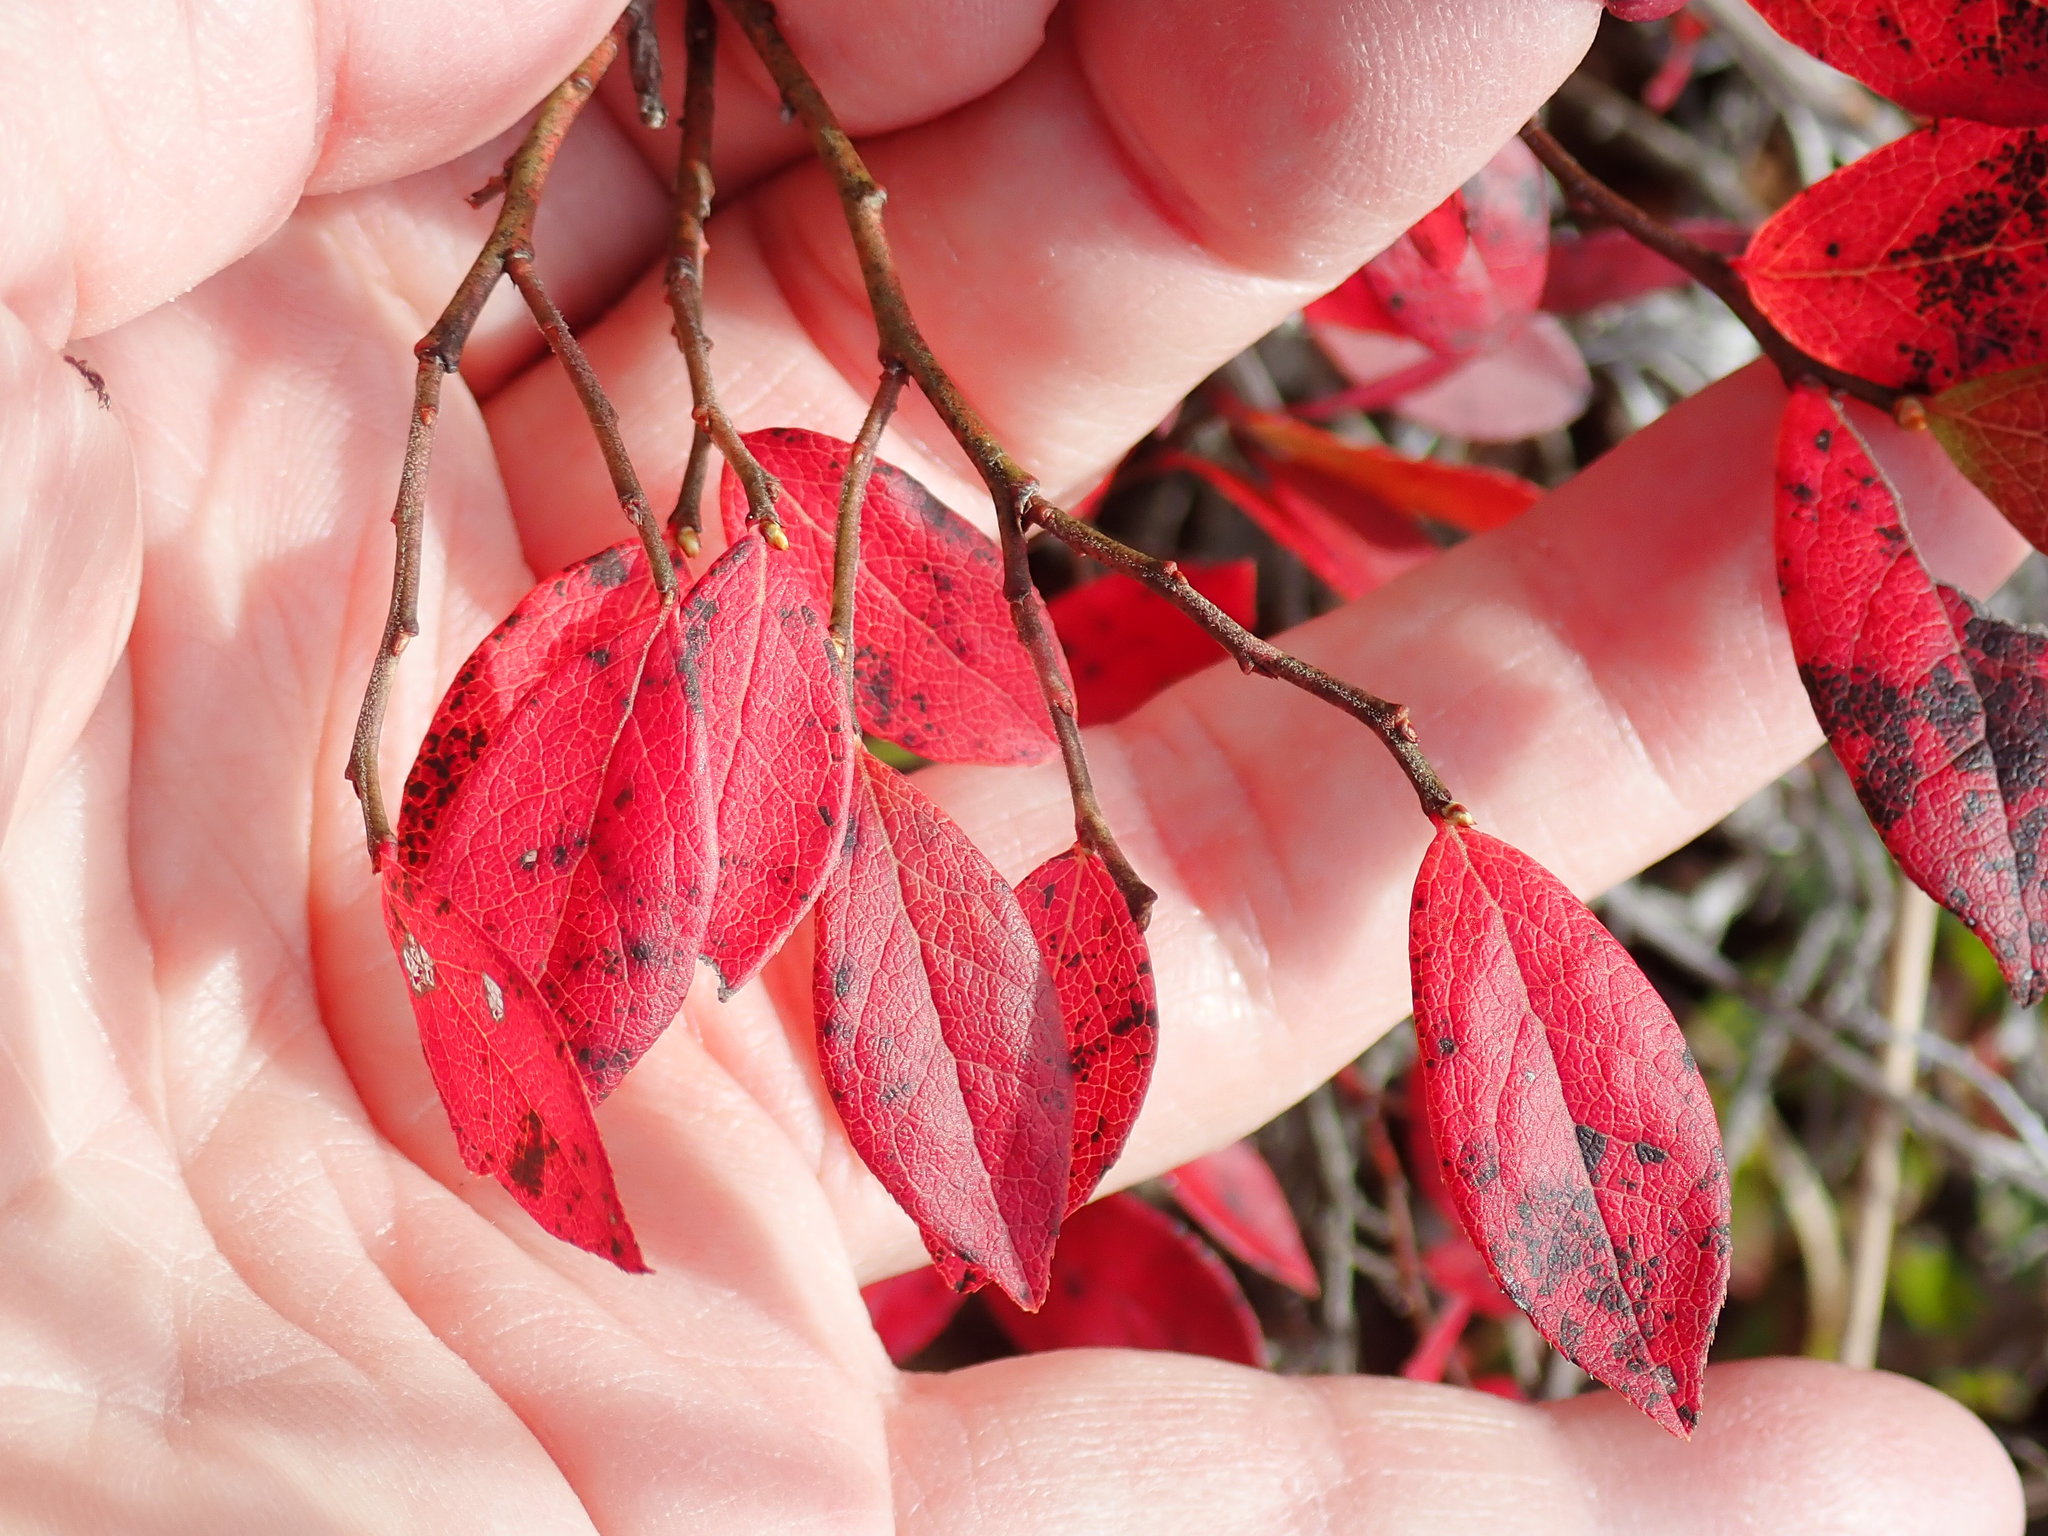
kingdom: Plantae
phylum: Tracheophyta
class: Magnoliopsida
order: Ericales
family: Ericaceae
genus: Vaccinium
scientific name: Vaccinium angustifolium
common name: Early lowbush blueberry
